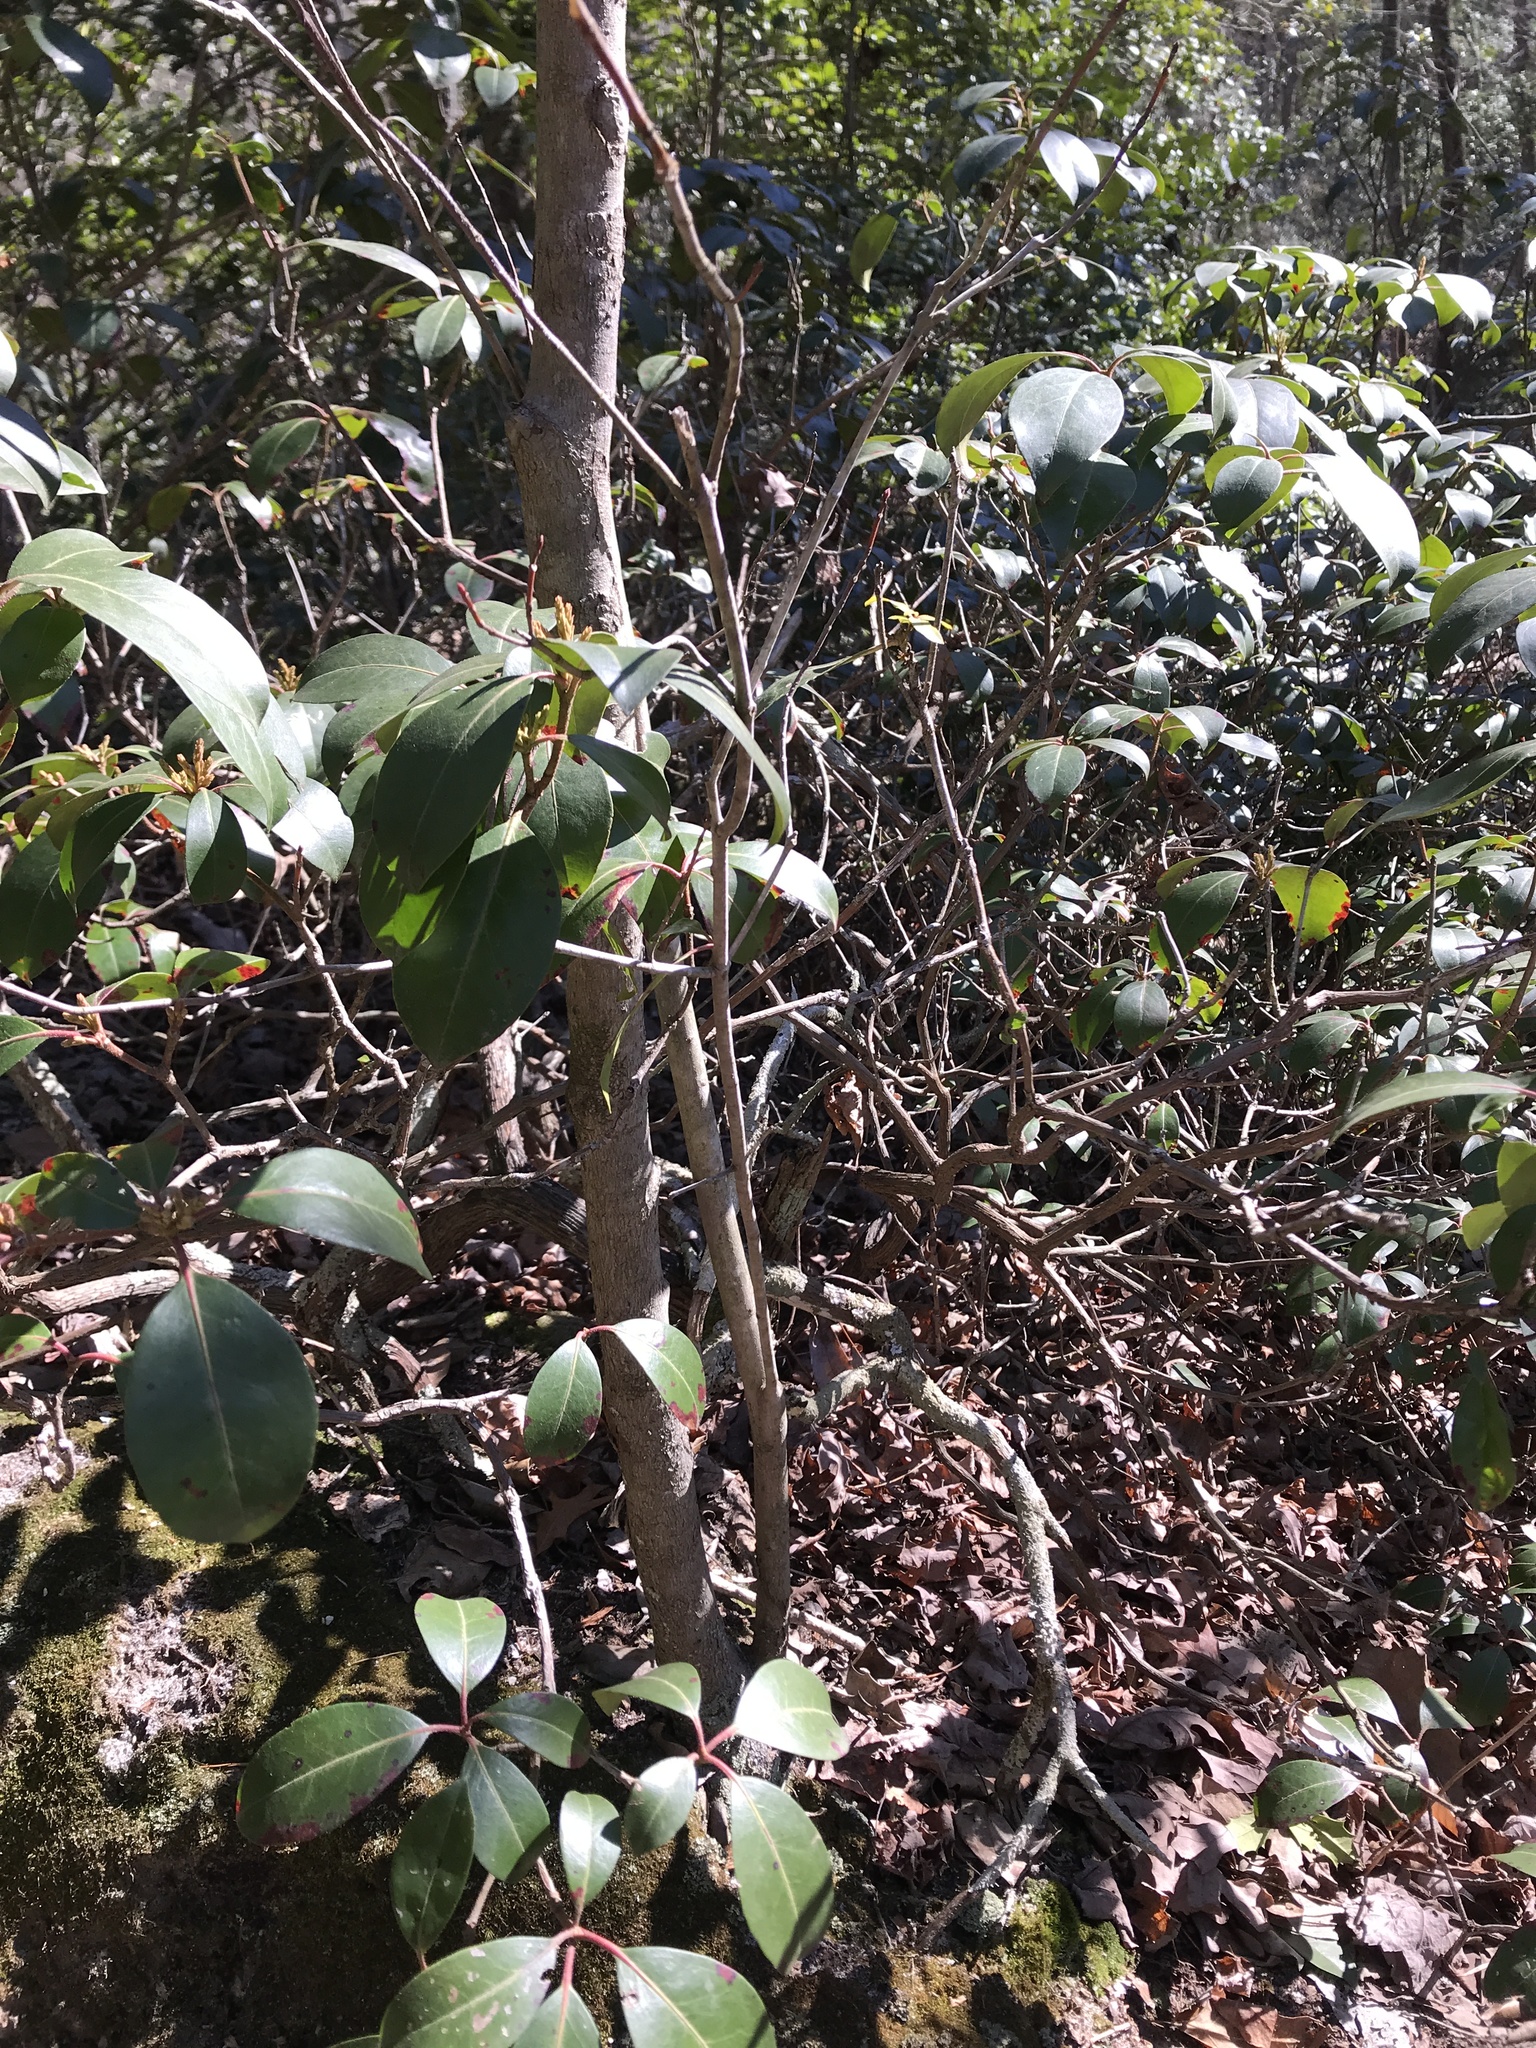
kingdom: Plantae
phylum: Tracheophyta
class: Magnoliopsida
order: Ericales
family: Ericaceae
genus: Kalmia
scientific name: Kalmia latifolia
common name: Mountain-laurel
